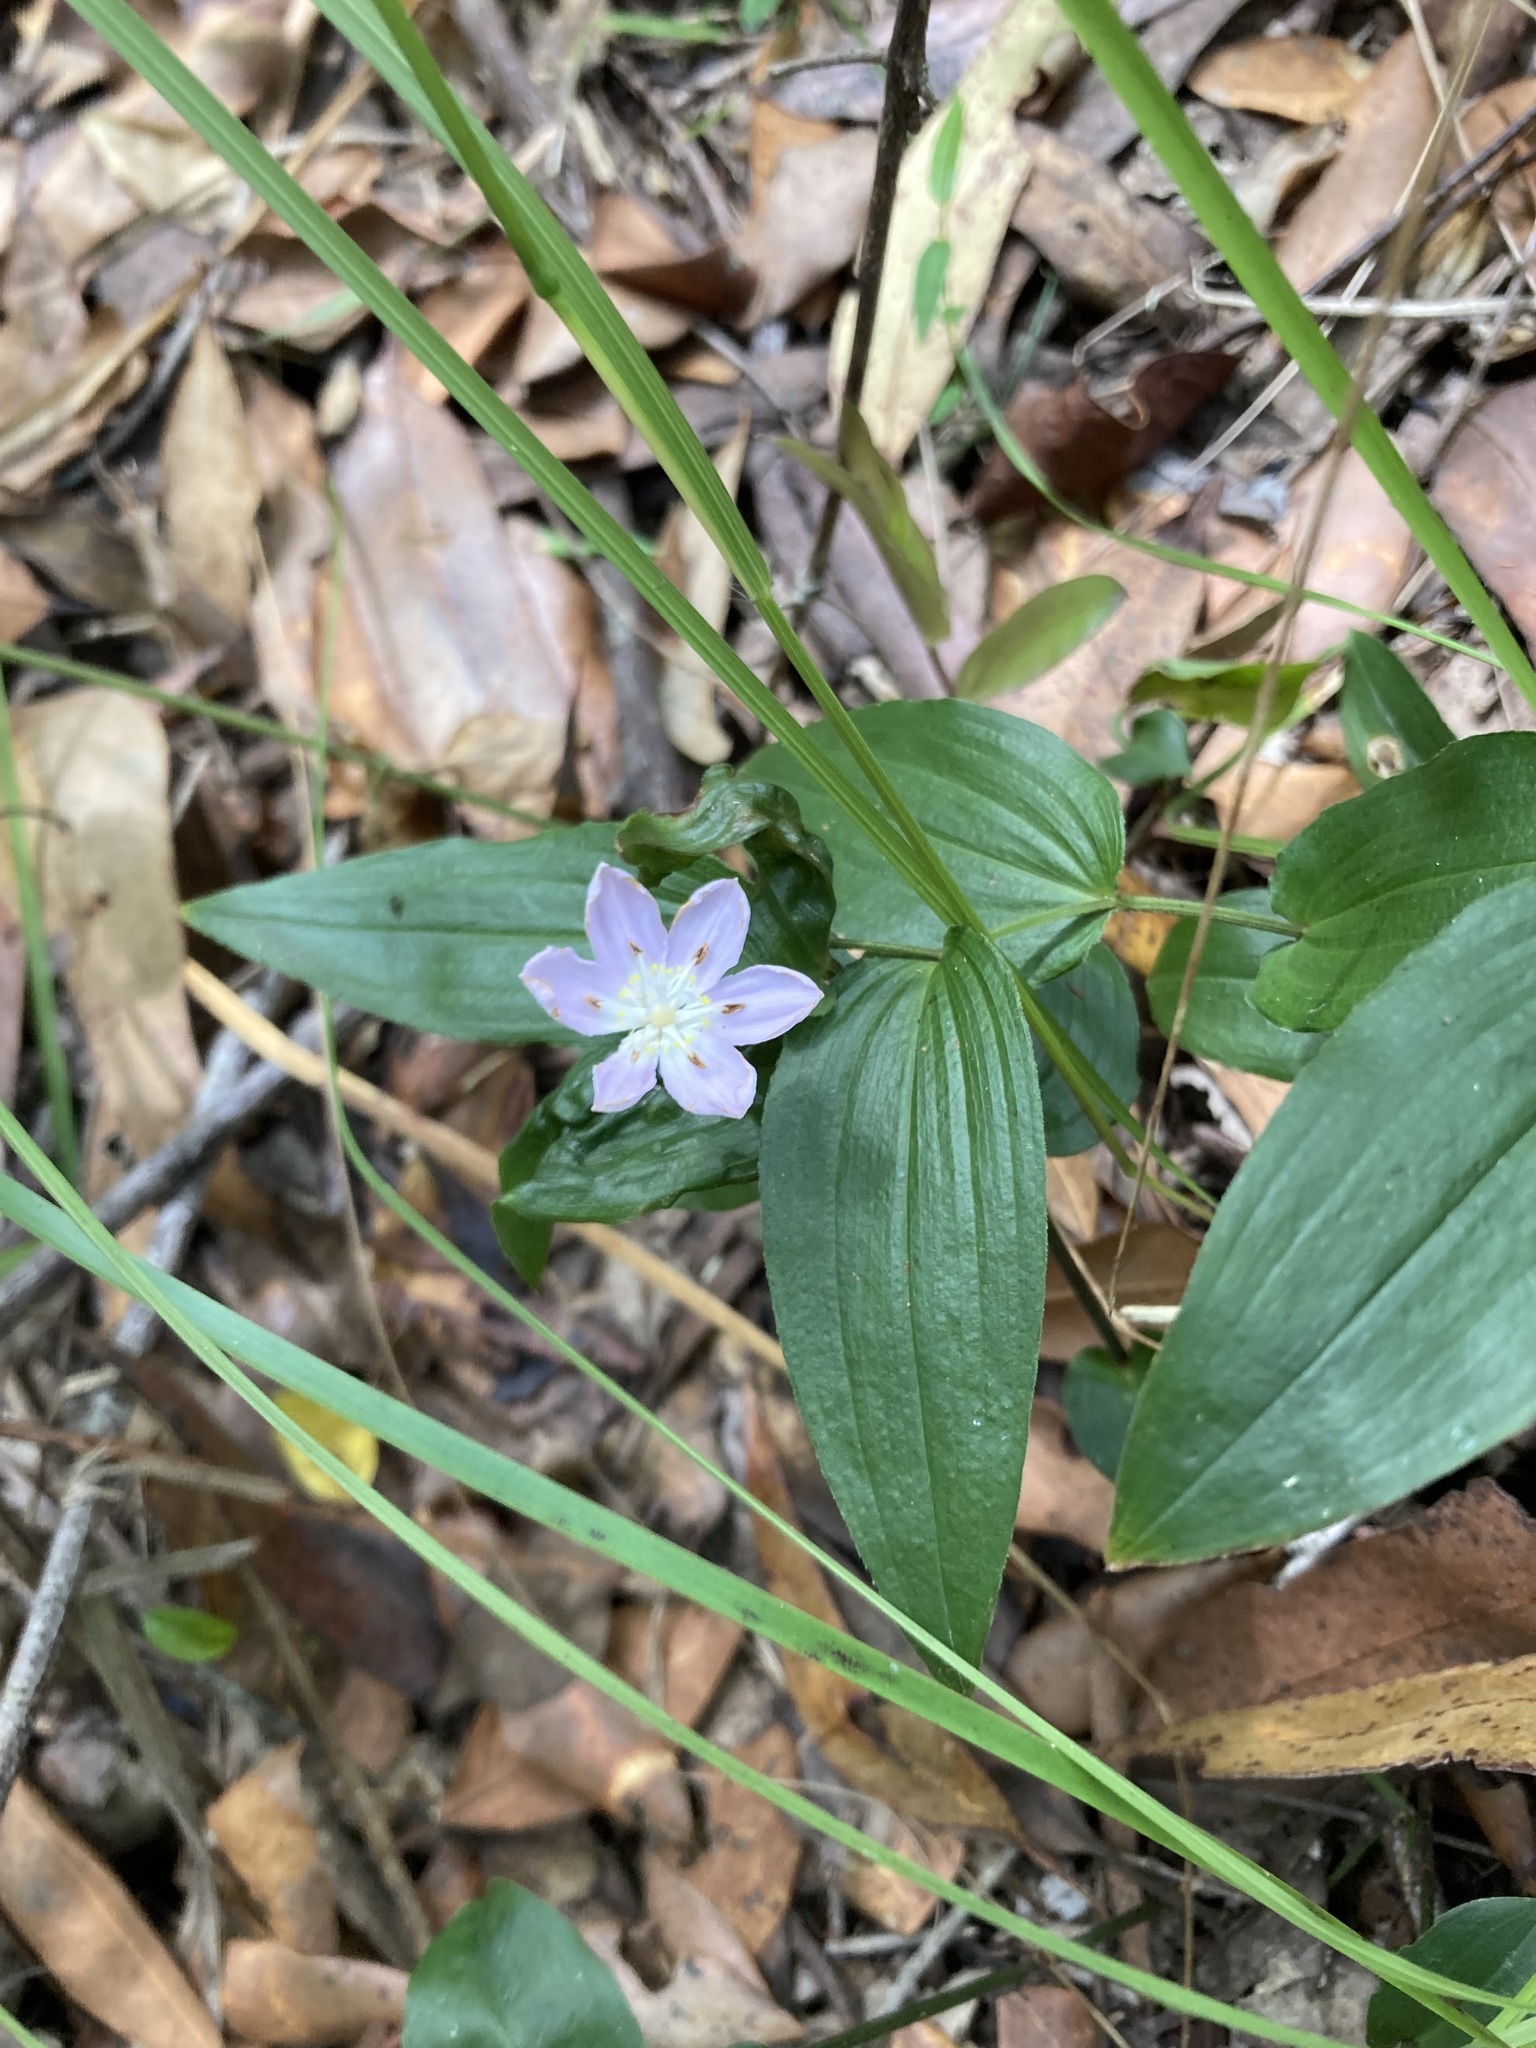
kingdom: Plantae
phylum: Tracheophyta
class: Liliopsida
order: Liliales
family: Colchicaceae
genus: Tripladenia
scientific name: Tripladenia cunninghamii
